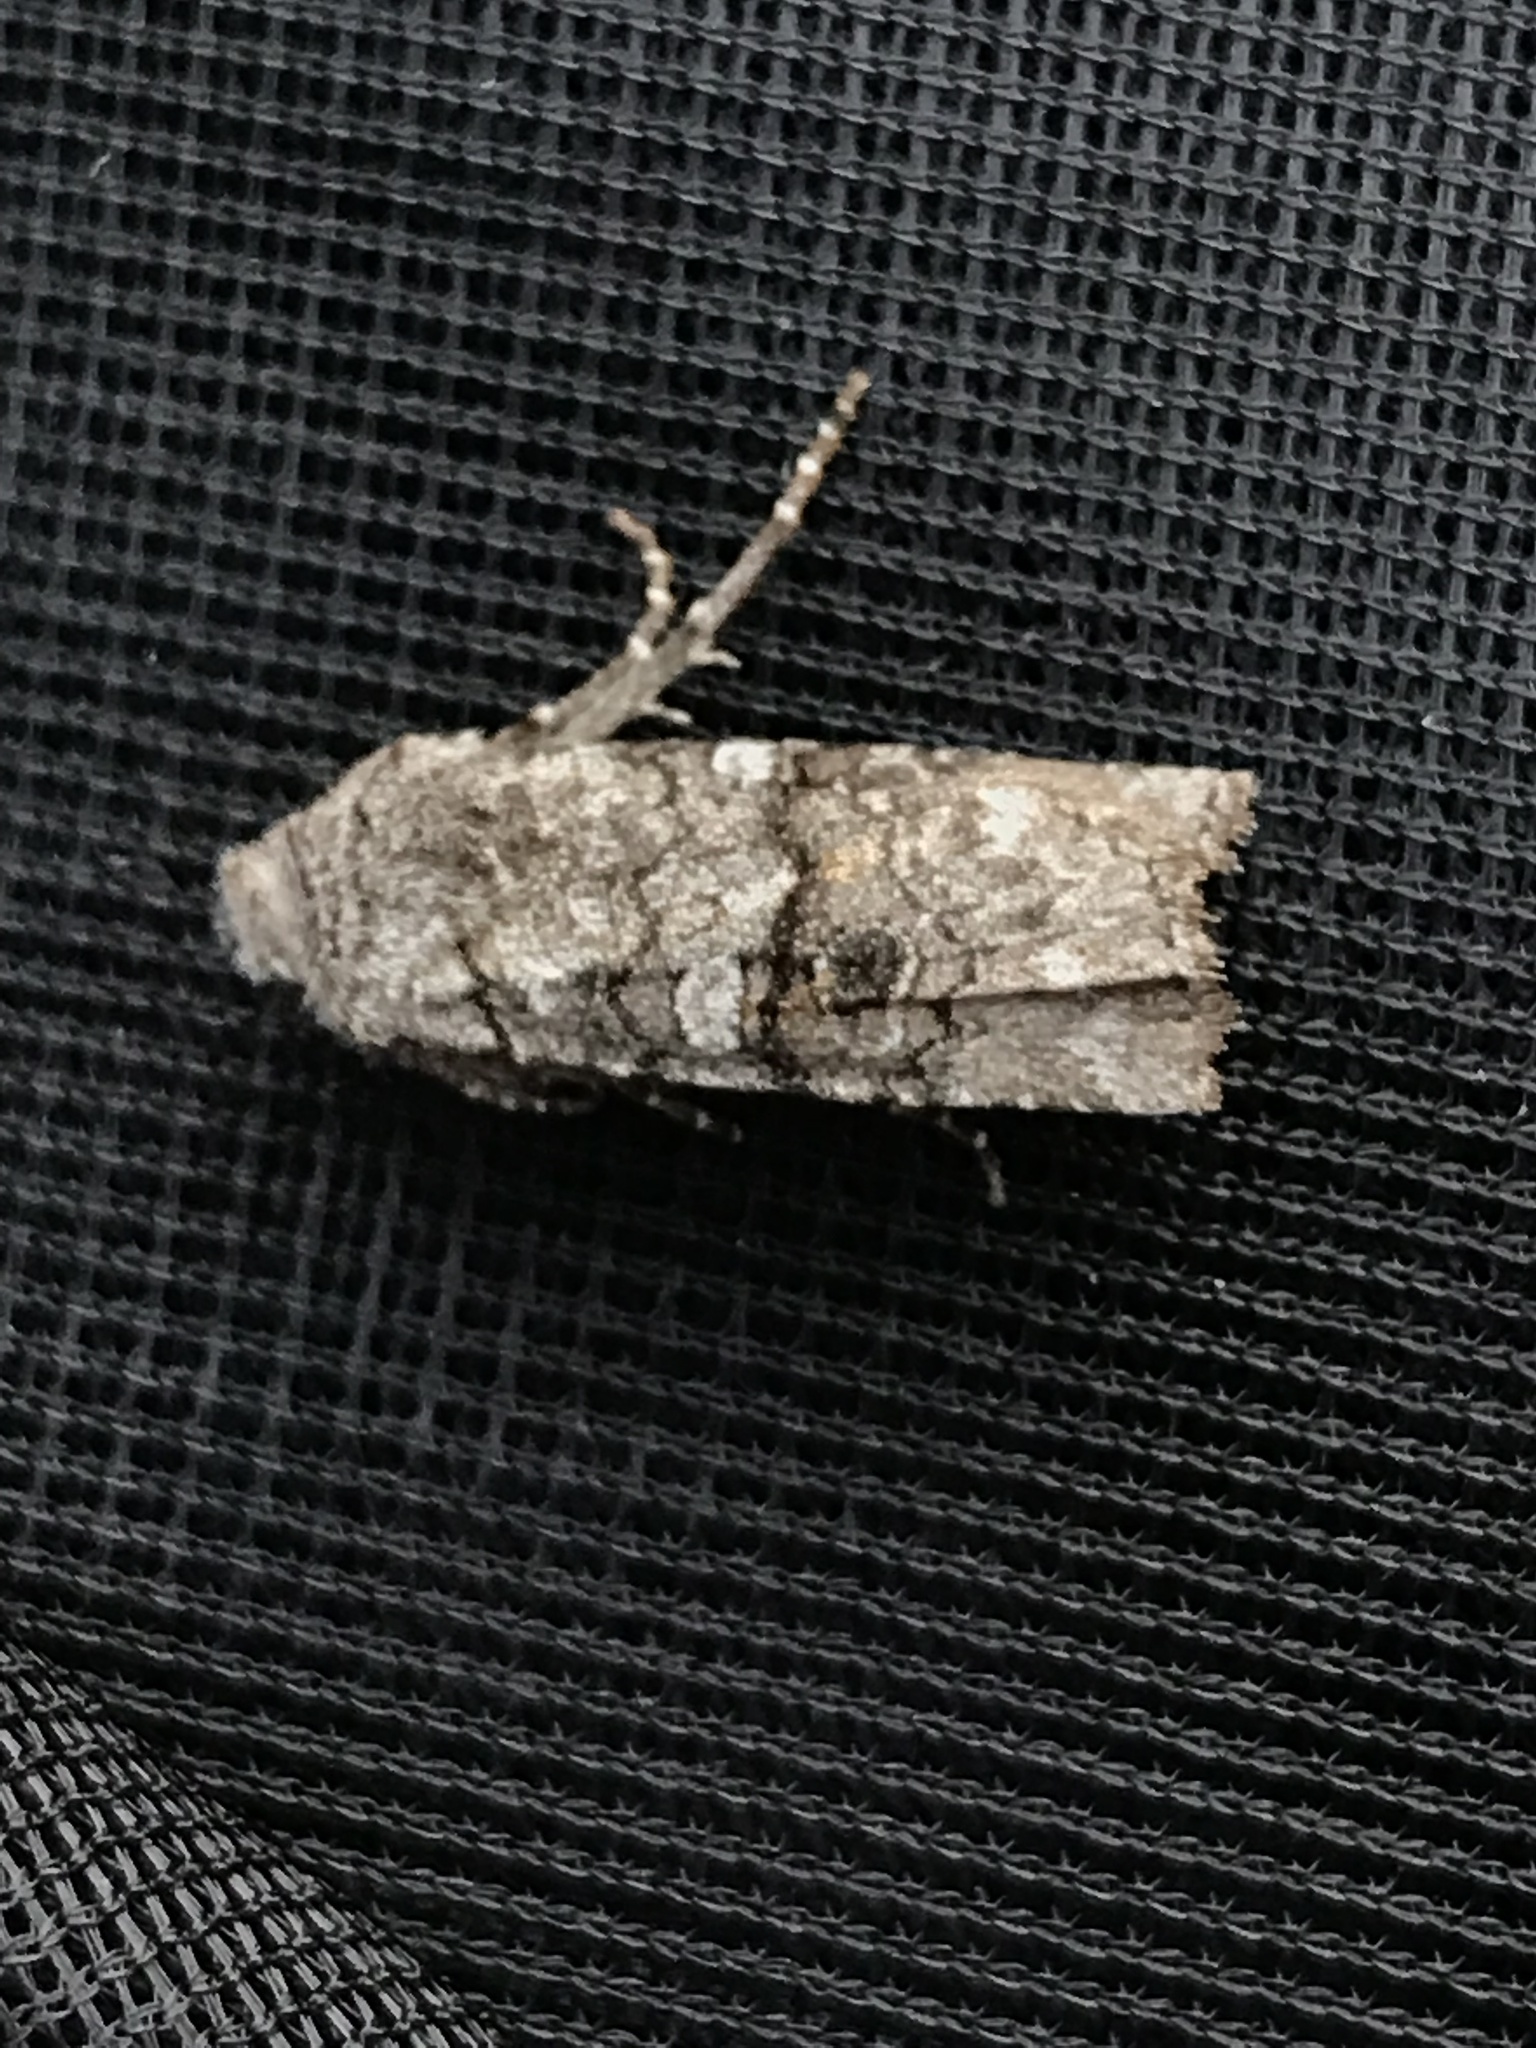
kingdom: Animalia
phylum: Arthropoda
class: Insecta
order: Lepidoptera
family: Noctuidae
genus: Litholomia
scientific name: Litholomia napaea
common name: False pinion moth
